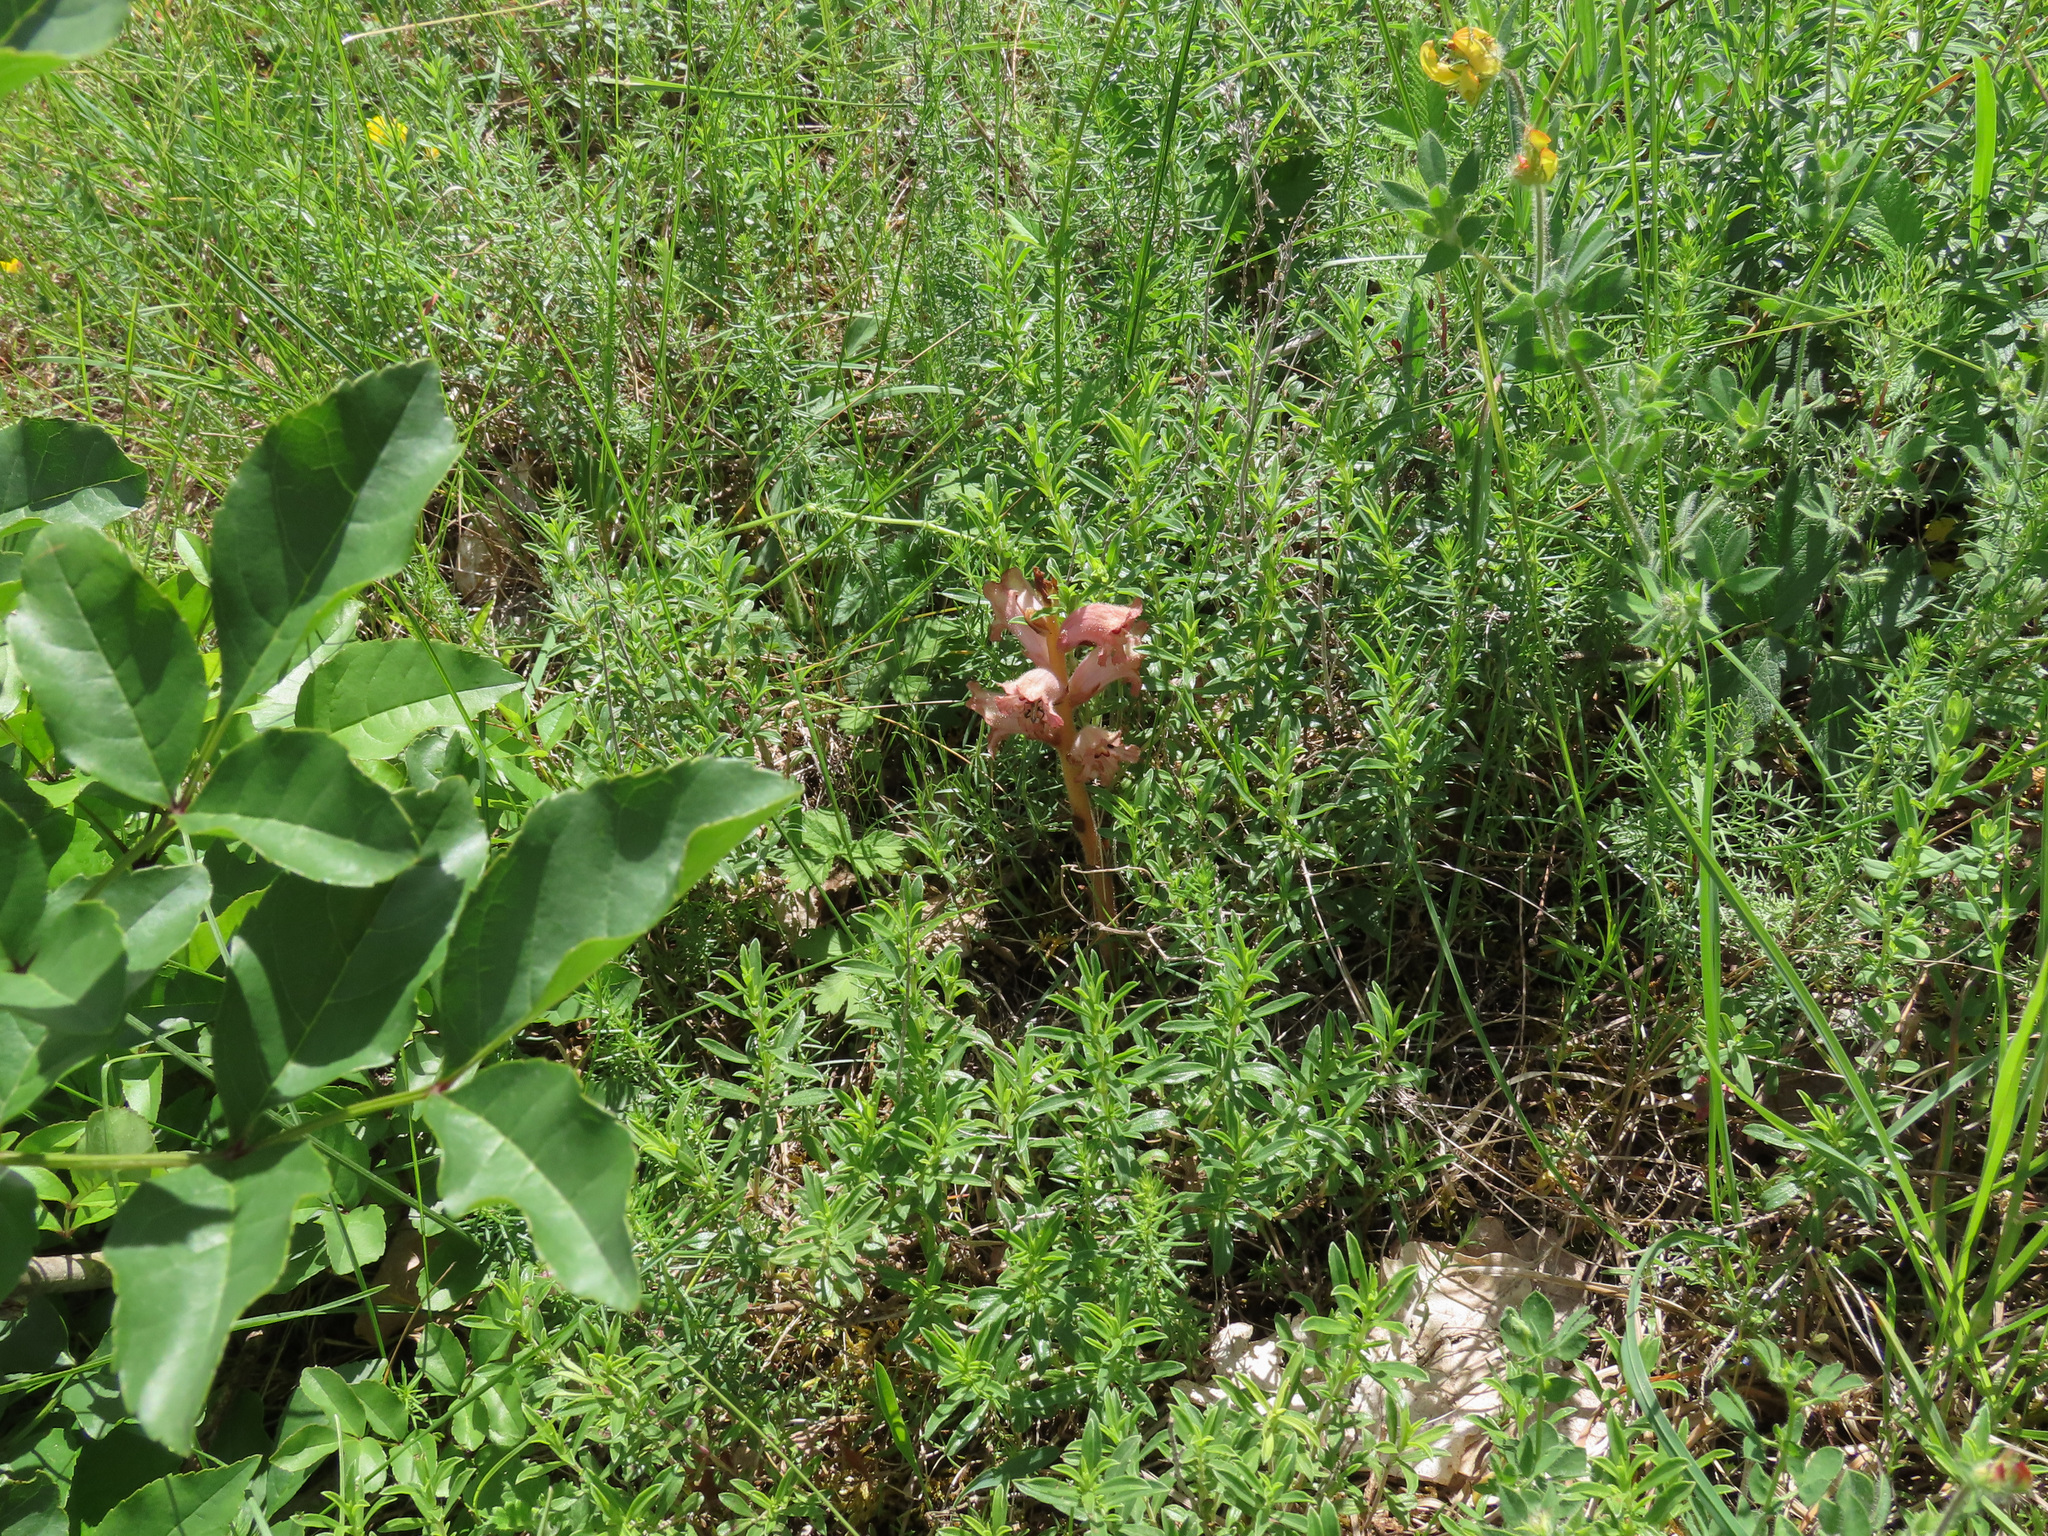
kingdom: Plantae
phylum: Tracheophyta
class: Magnoliopsida
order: Lamiales
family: Orobanchaceae
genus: Orobanche
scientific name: Orobanche caryophyllacea
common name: Bedstraw broomrape
